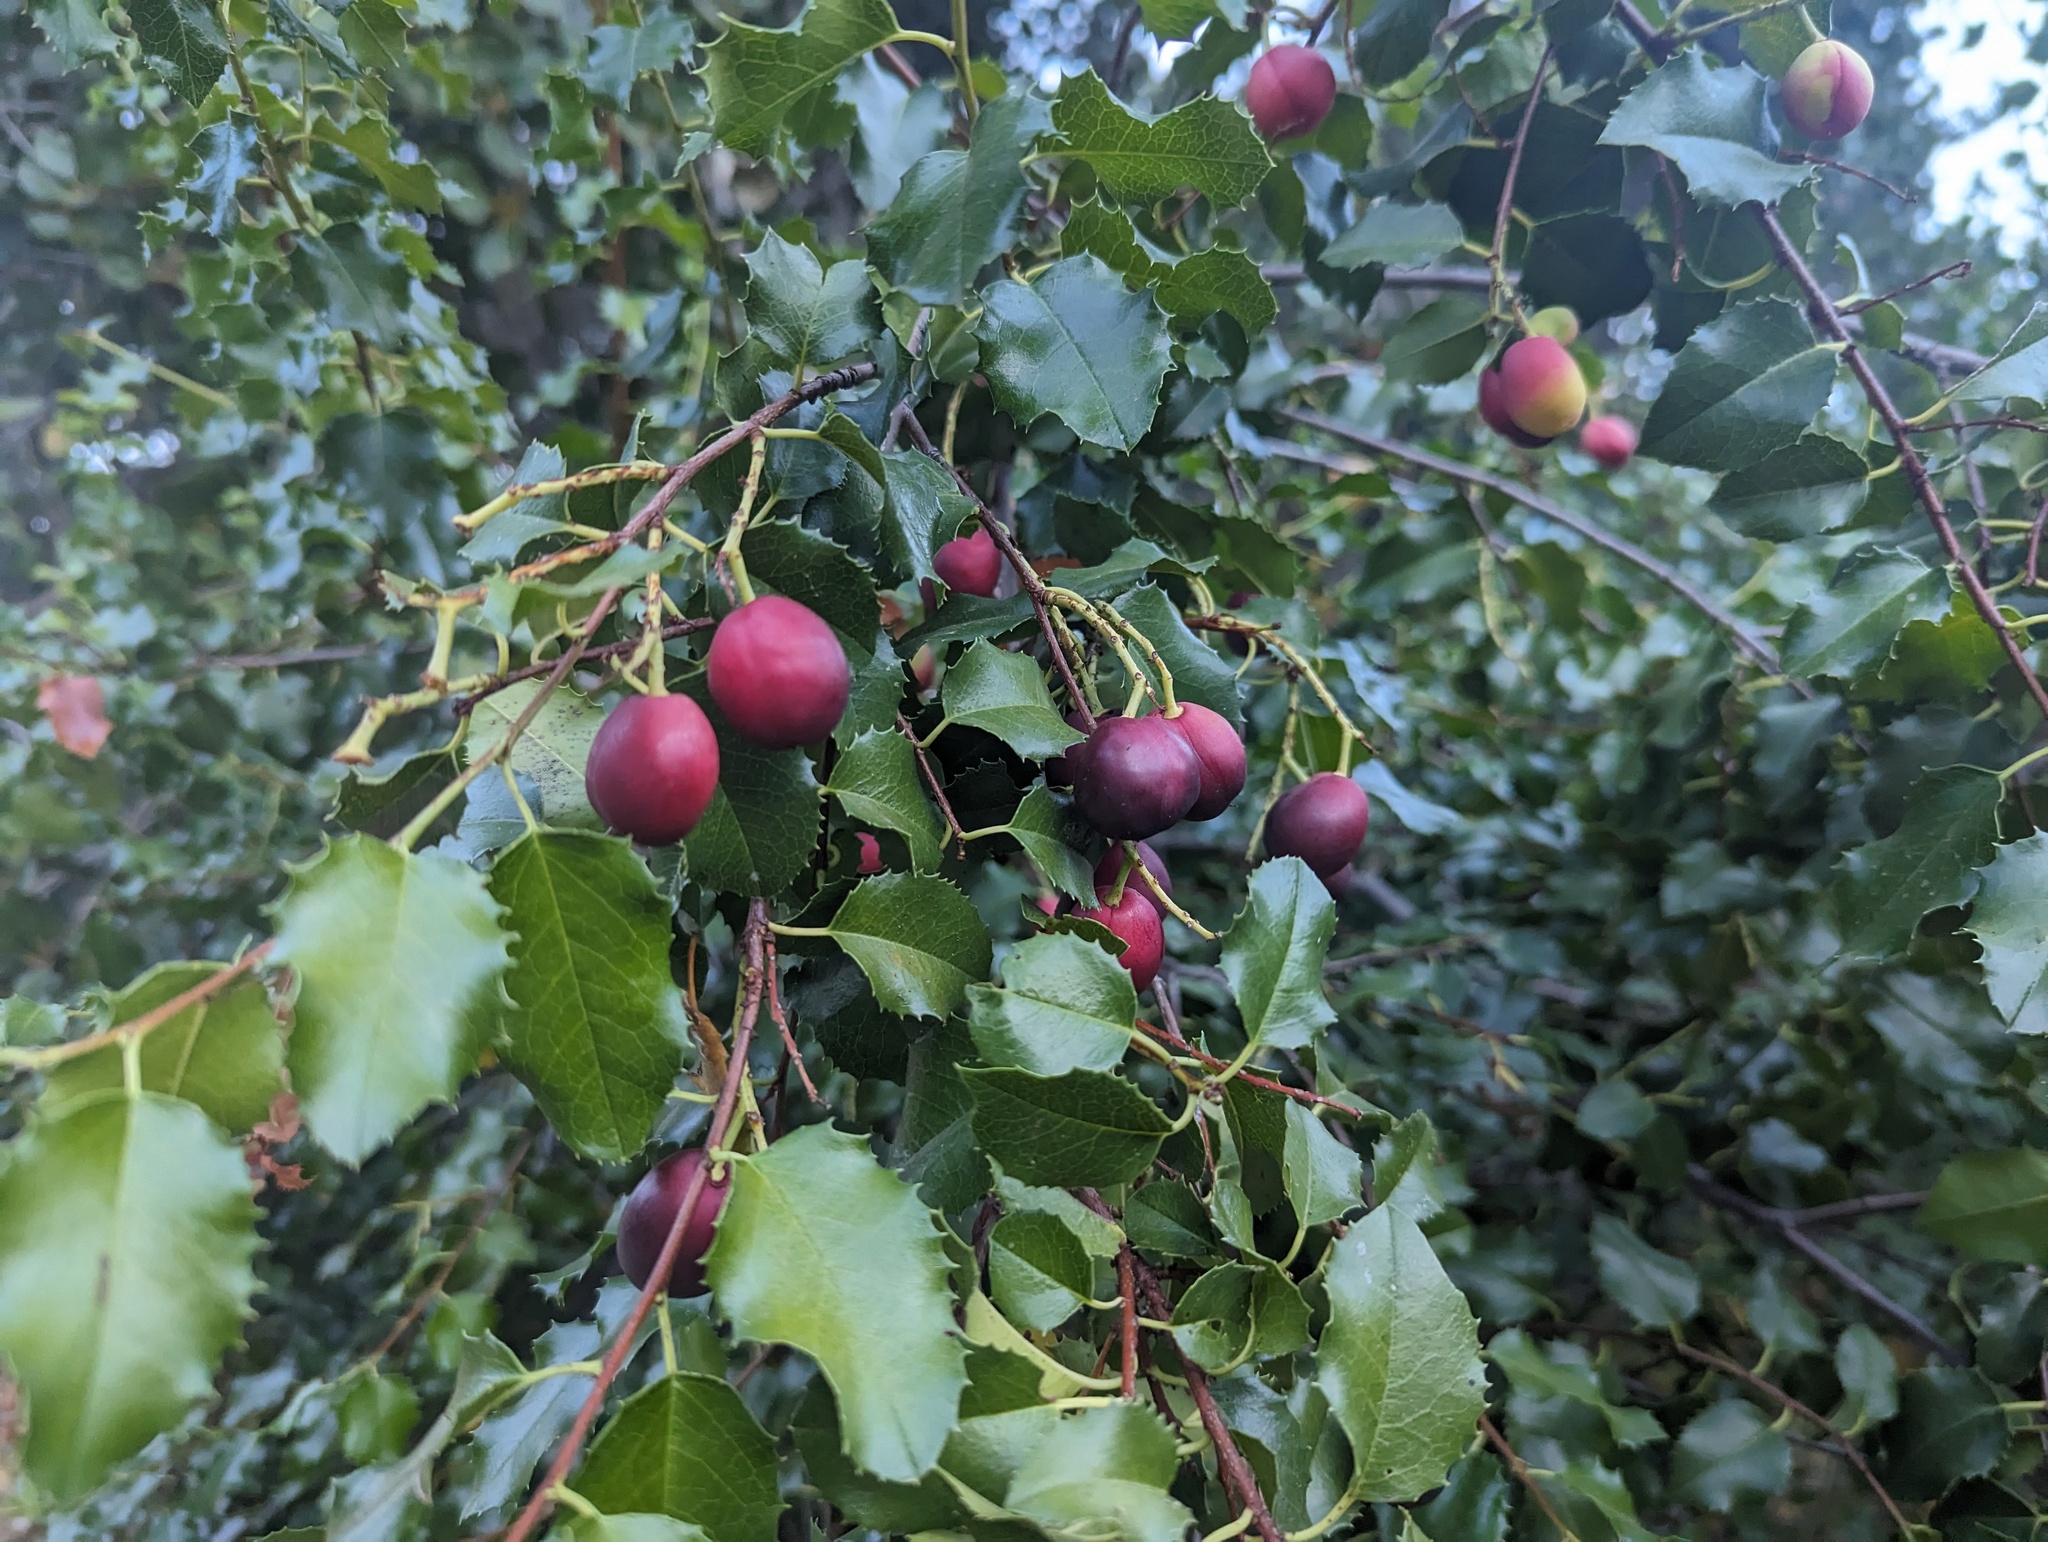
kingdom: Plantae
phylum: Tracheophyta
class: Magnoliopsida
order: Rosales
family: Rosaceae
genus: Prunus
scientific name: Prunus ilicifolia
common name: Hollyleaf cherry
